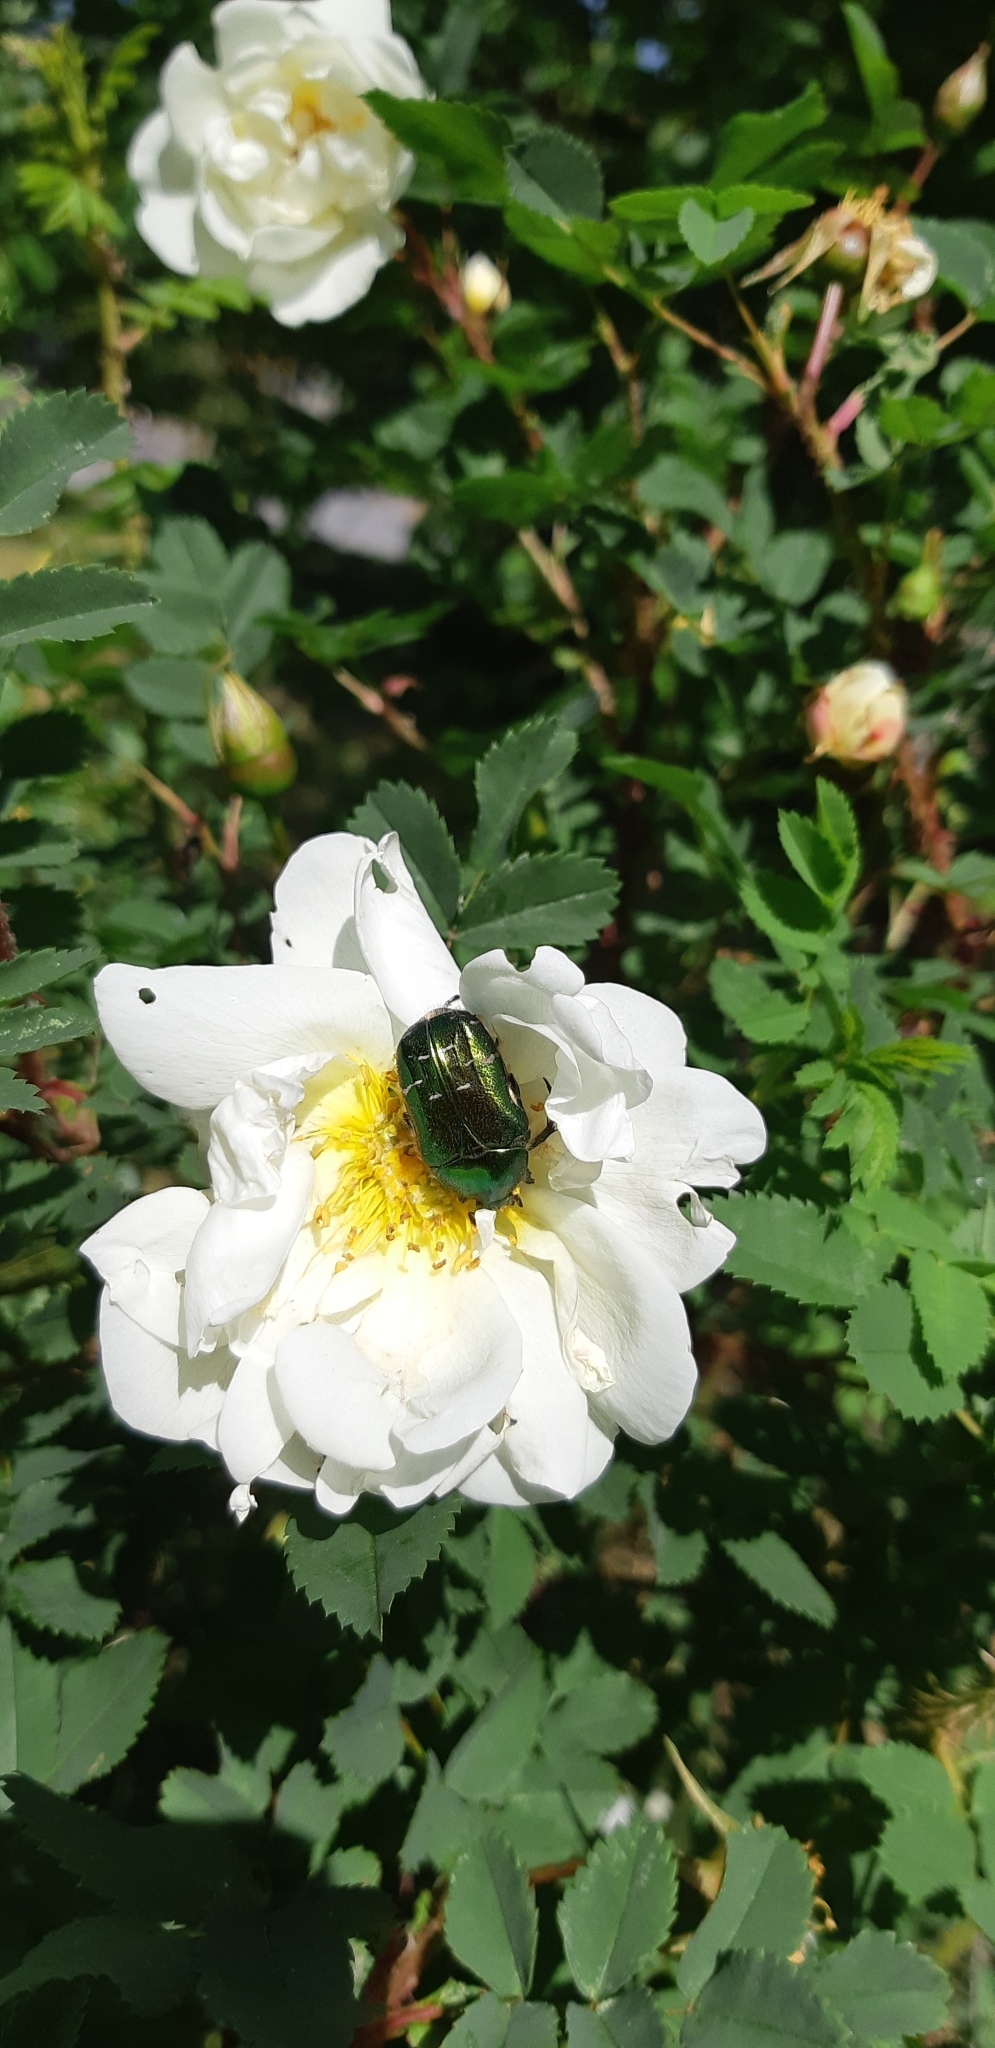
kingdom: Animalia
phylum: Arthropoda
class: Insecta
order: Coleoptera
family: Scarabaeidae
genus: Cetonia
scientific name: Cetonia aurata
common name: Rose chafer
